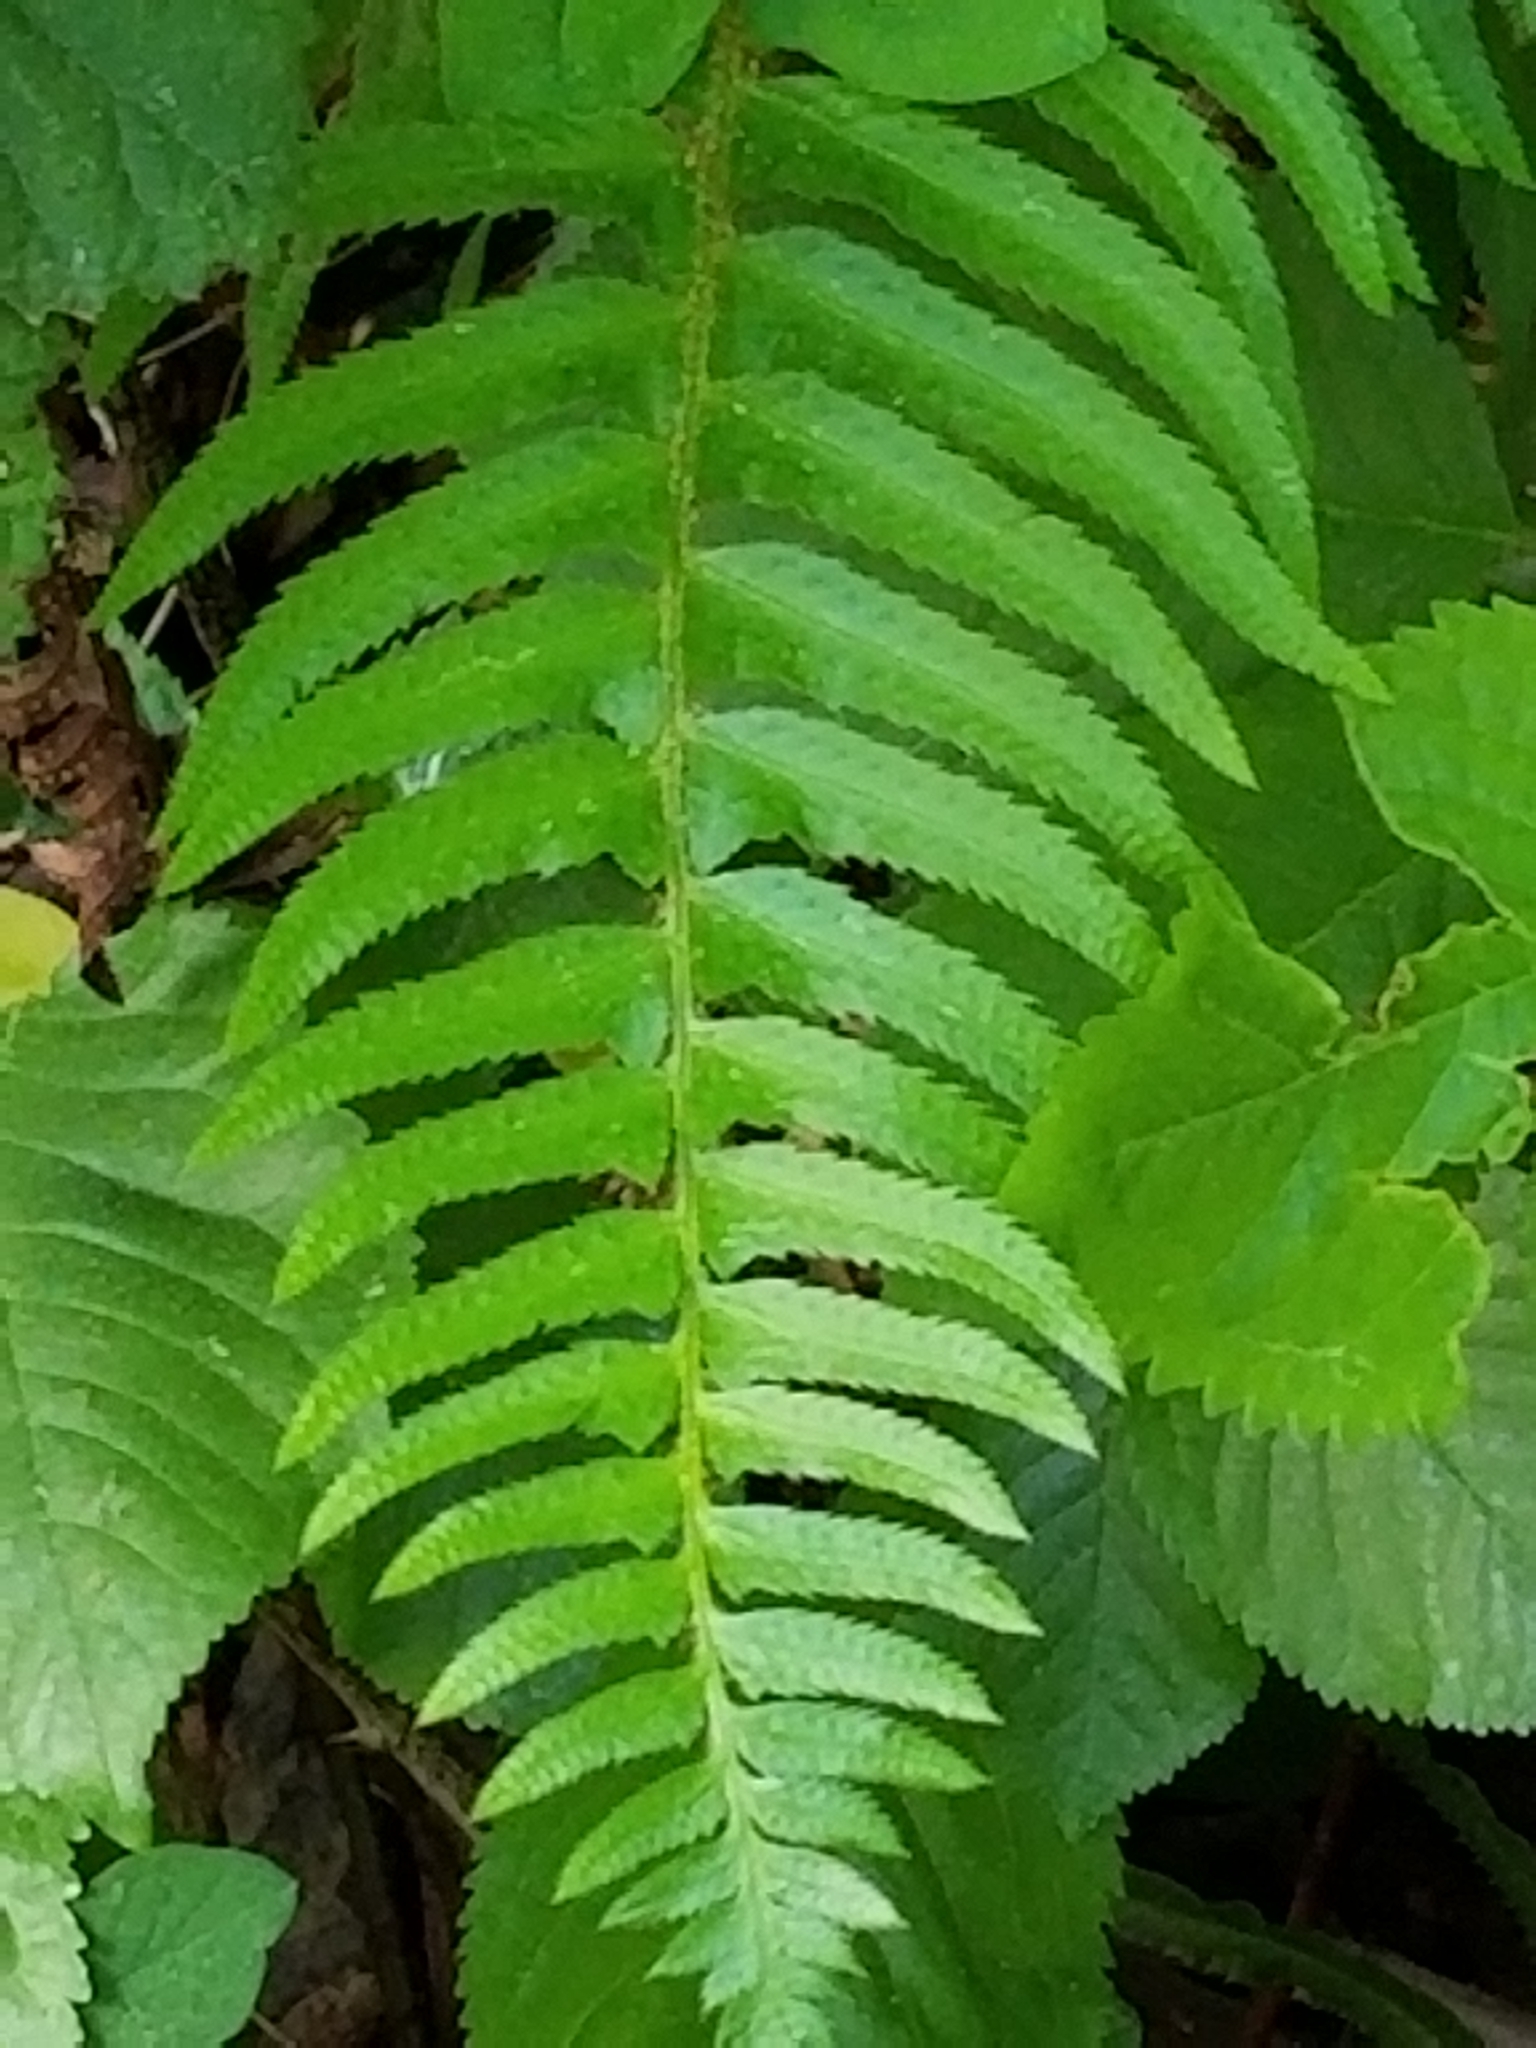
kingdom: Plantae
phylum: Tracheophyta
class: Polypodiopsida
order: Polypodiales
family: Dryopteridaceae
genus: Polystichum
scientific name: Polystichum munitum
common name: Western sword-fern
